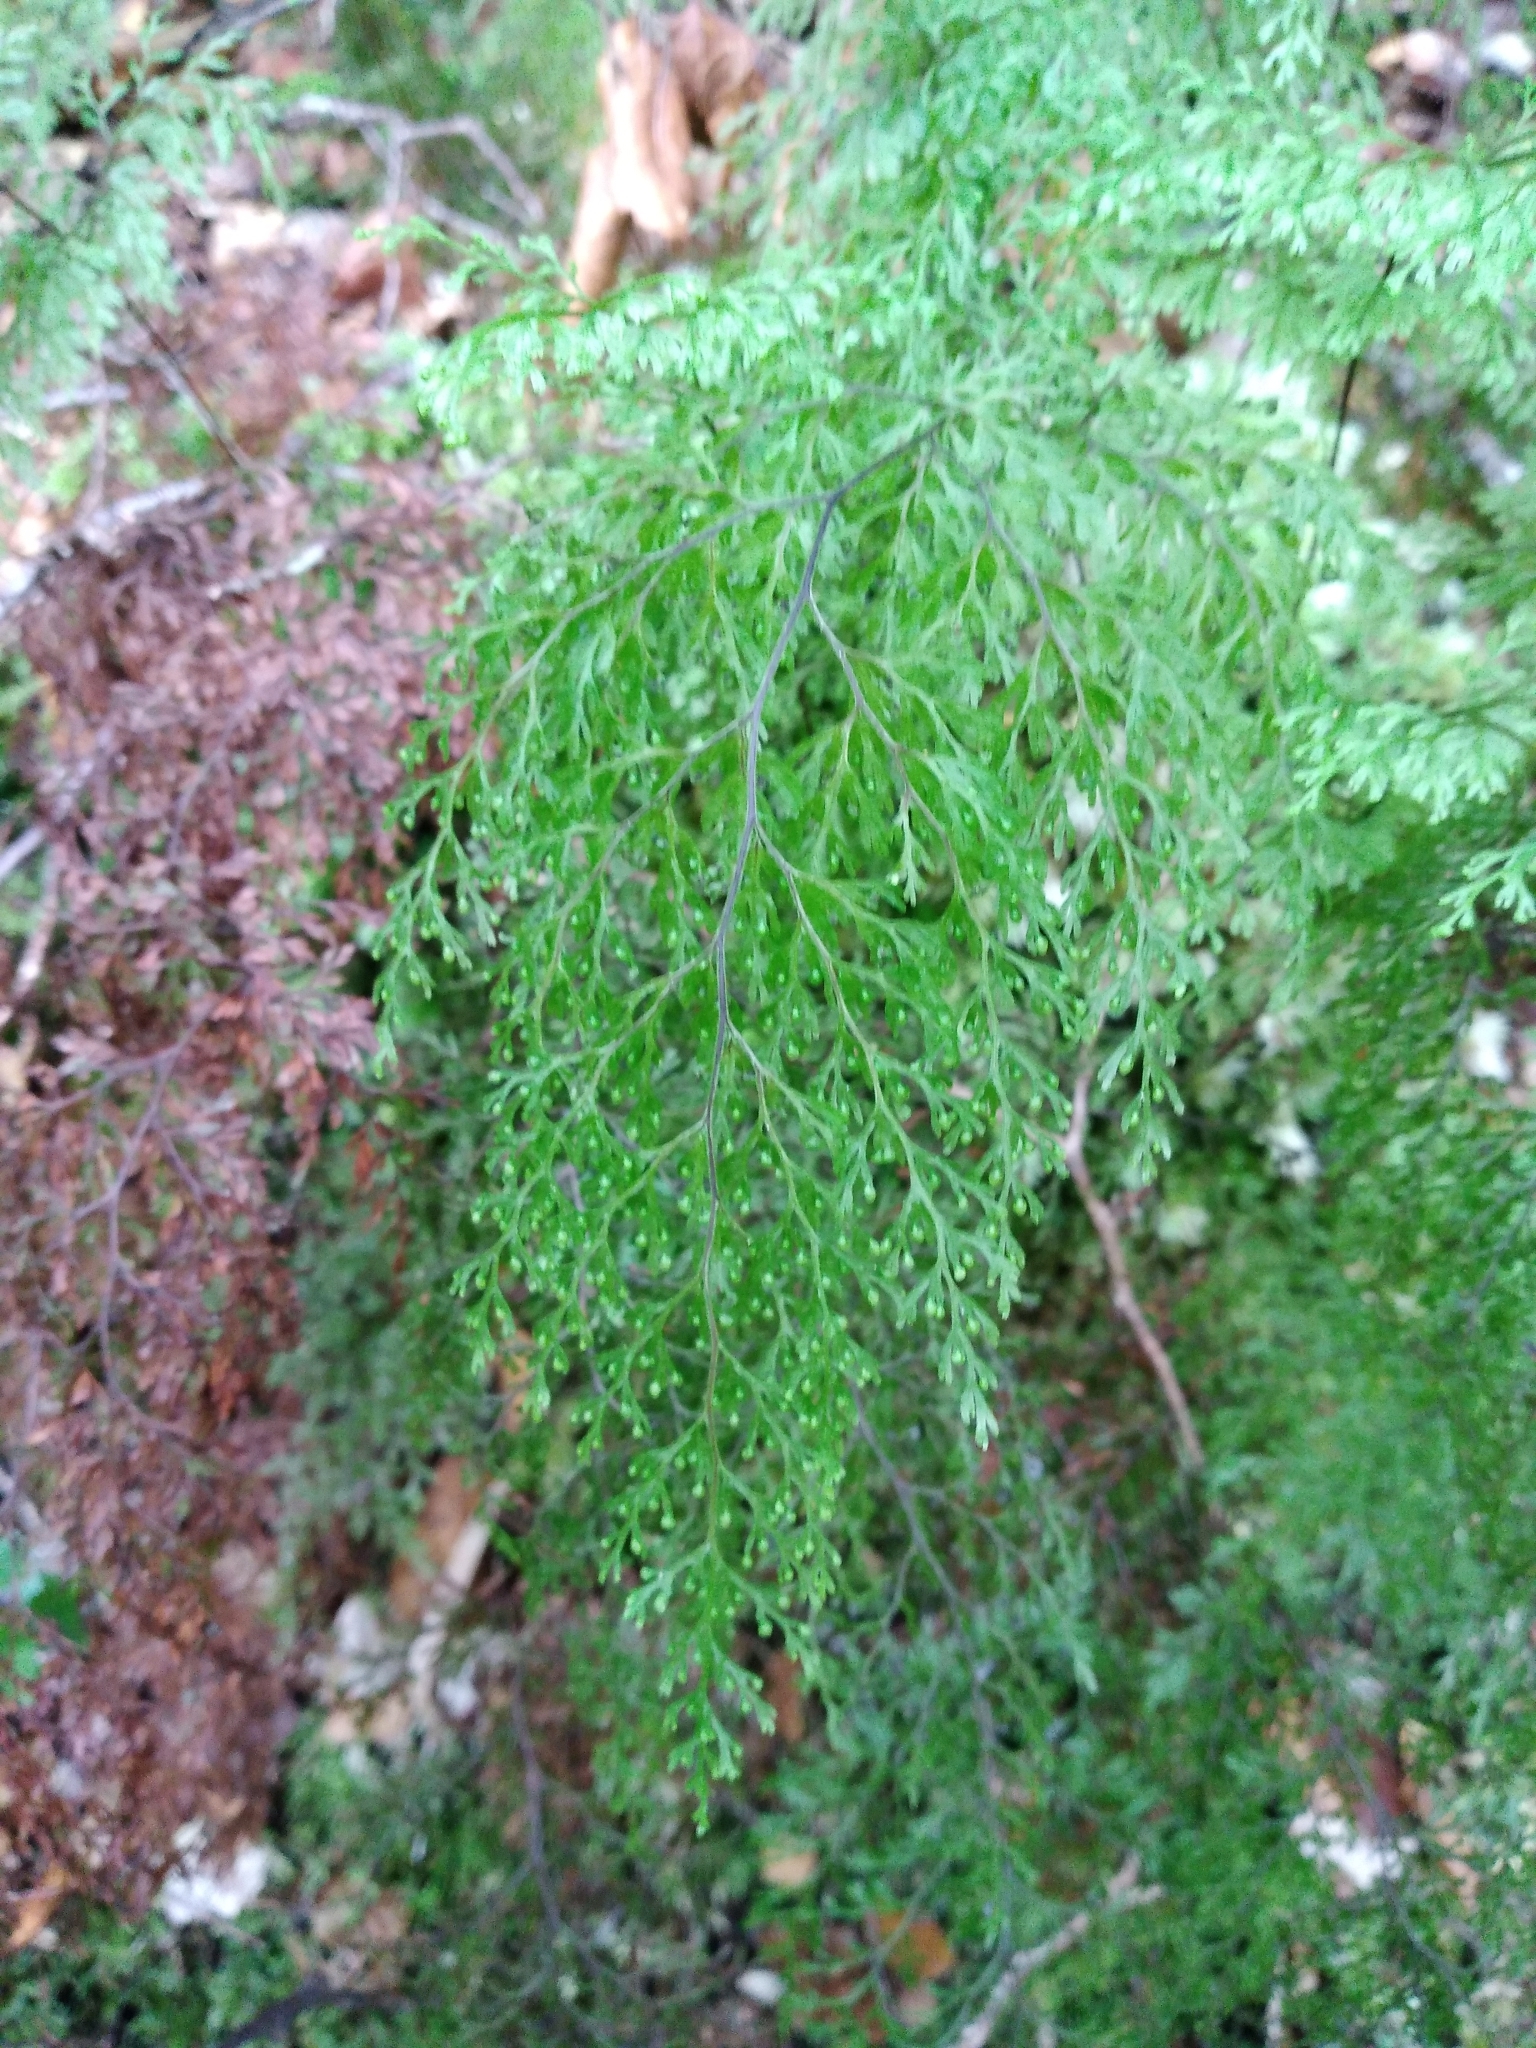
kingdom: Plantae
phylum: Tracheophyta
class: Polypodiopsida
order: Hymenophyllales
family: Hymenophyllaceae
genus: Hymenophyllum
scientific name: Hymenophyllum bivalve
